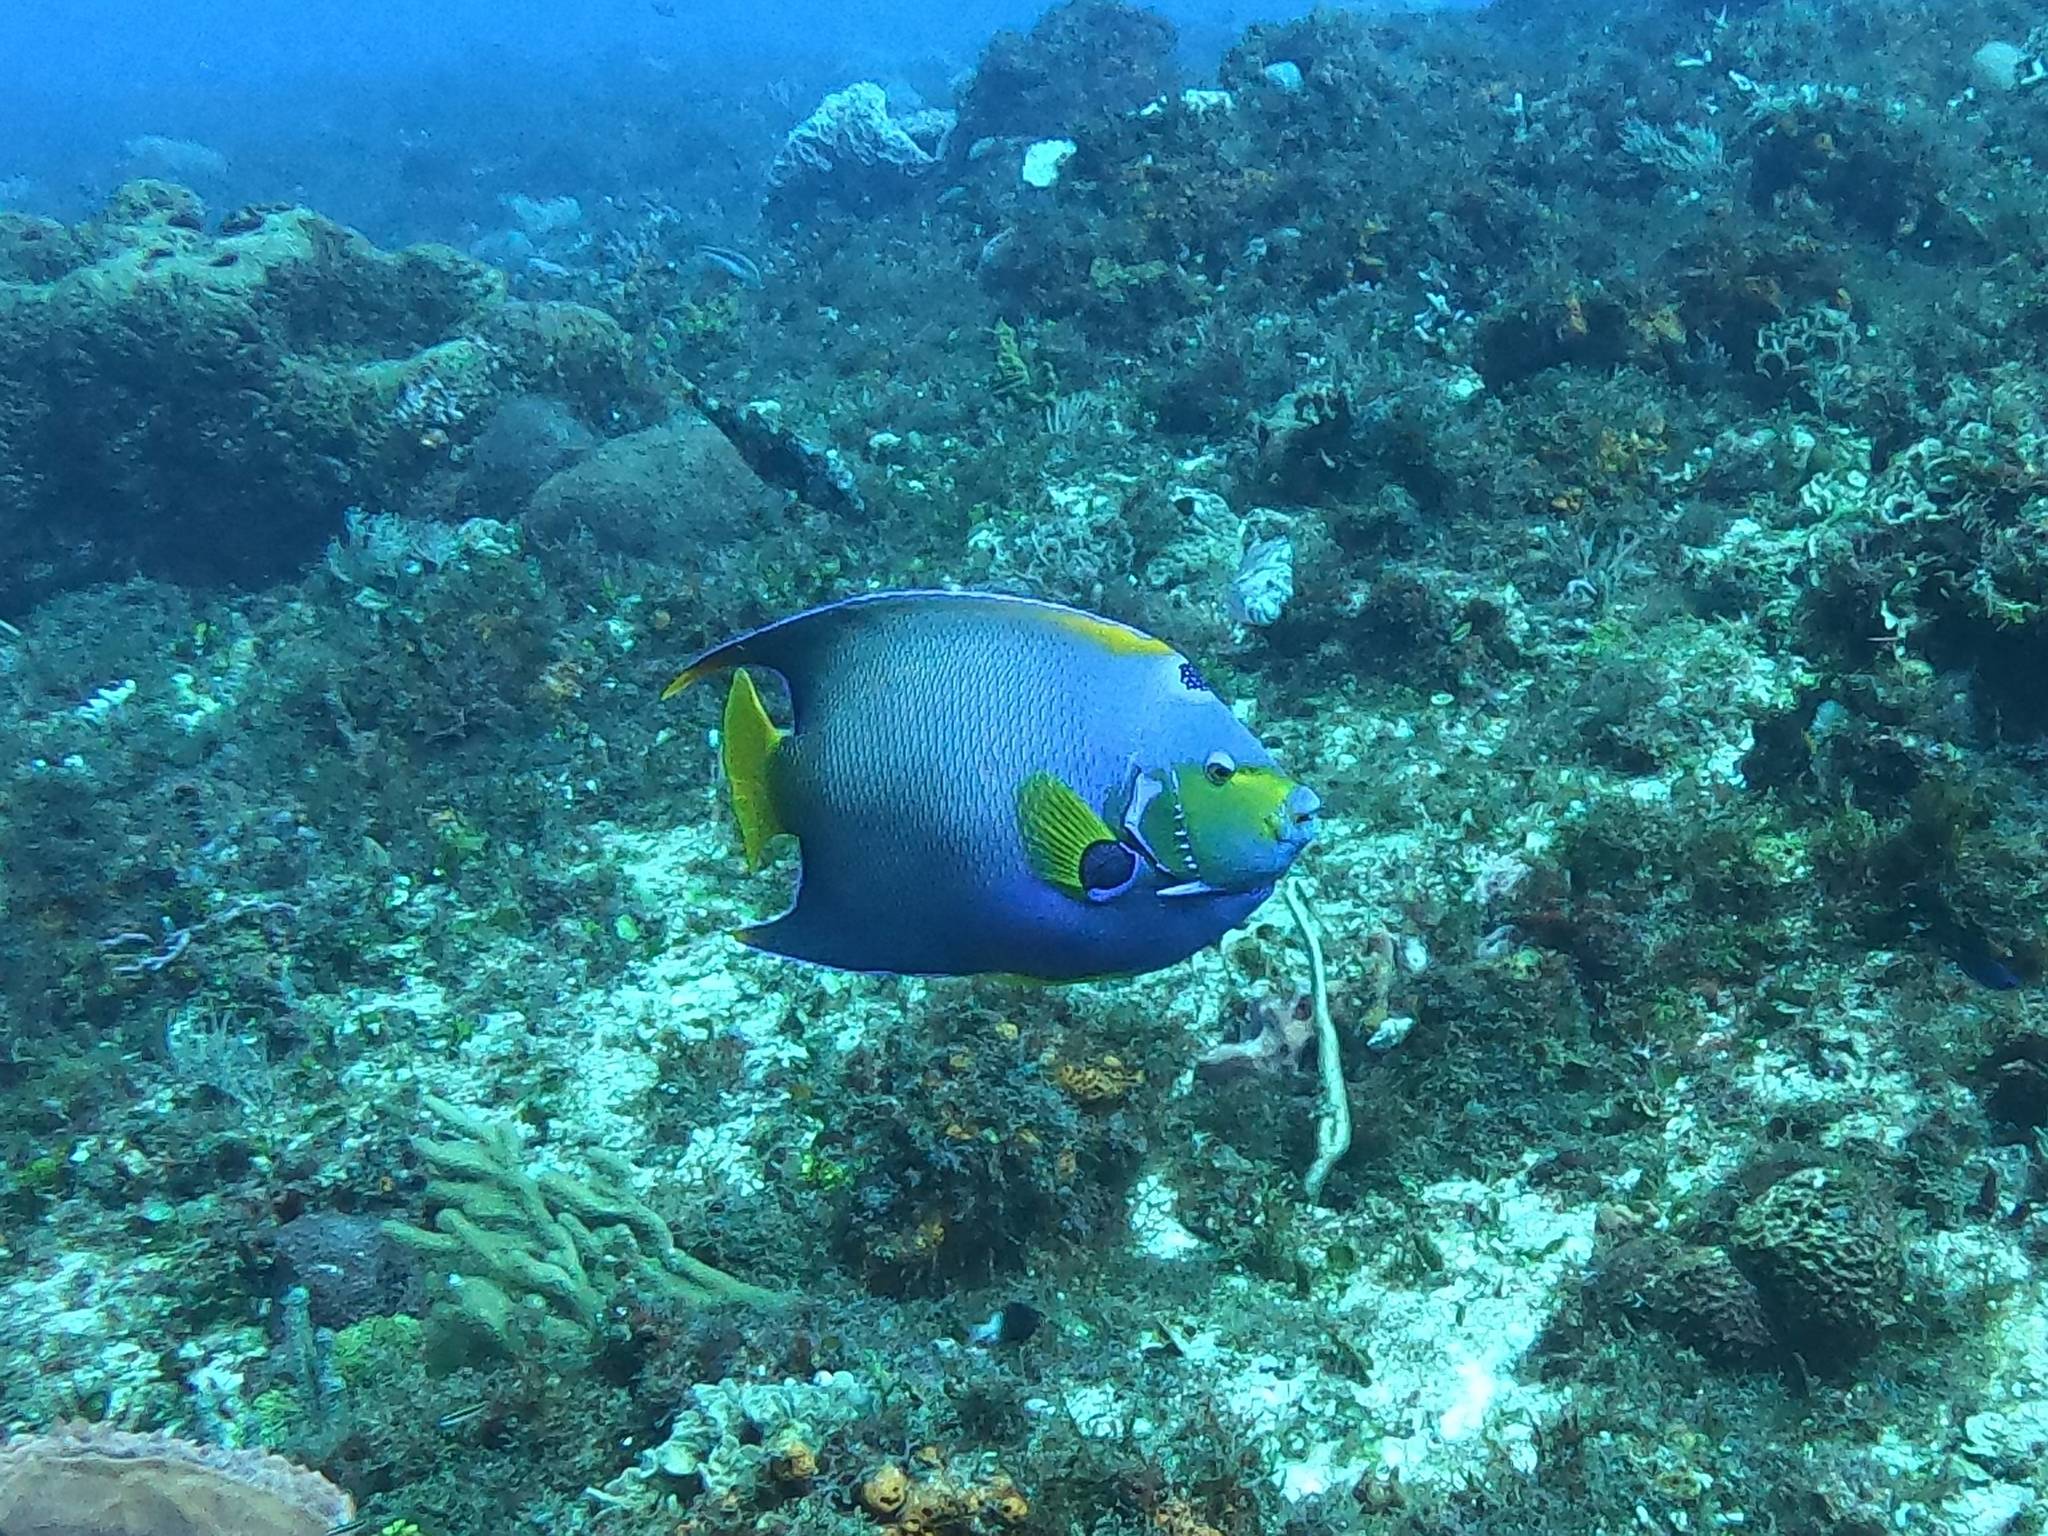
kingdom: Animalia
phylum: Chordata
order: Perciformes
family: Pomacanthidae
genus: Holacanthus
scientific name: Holacanthus ciliaris
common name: Queen angelfish
